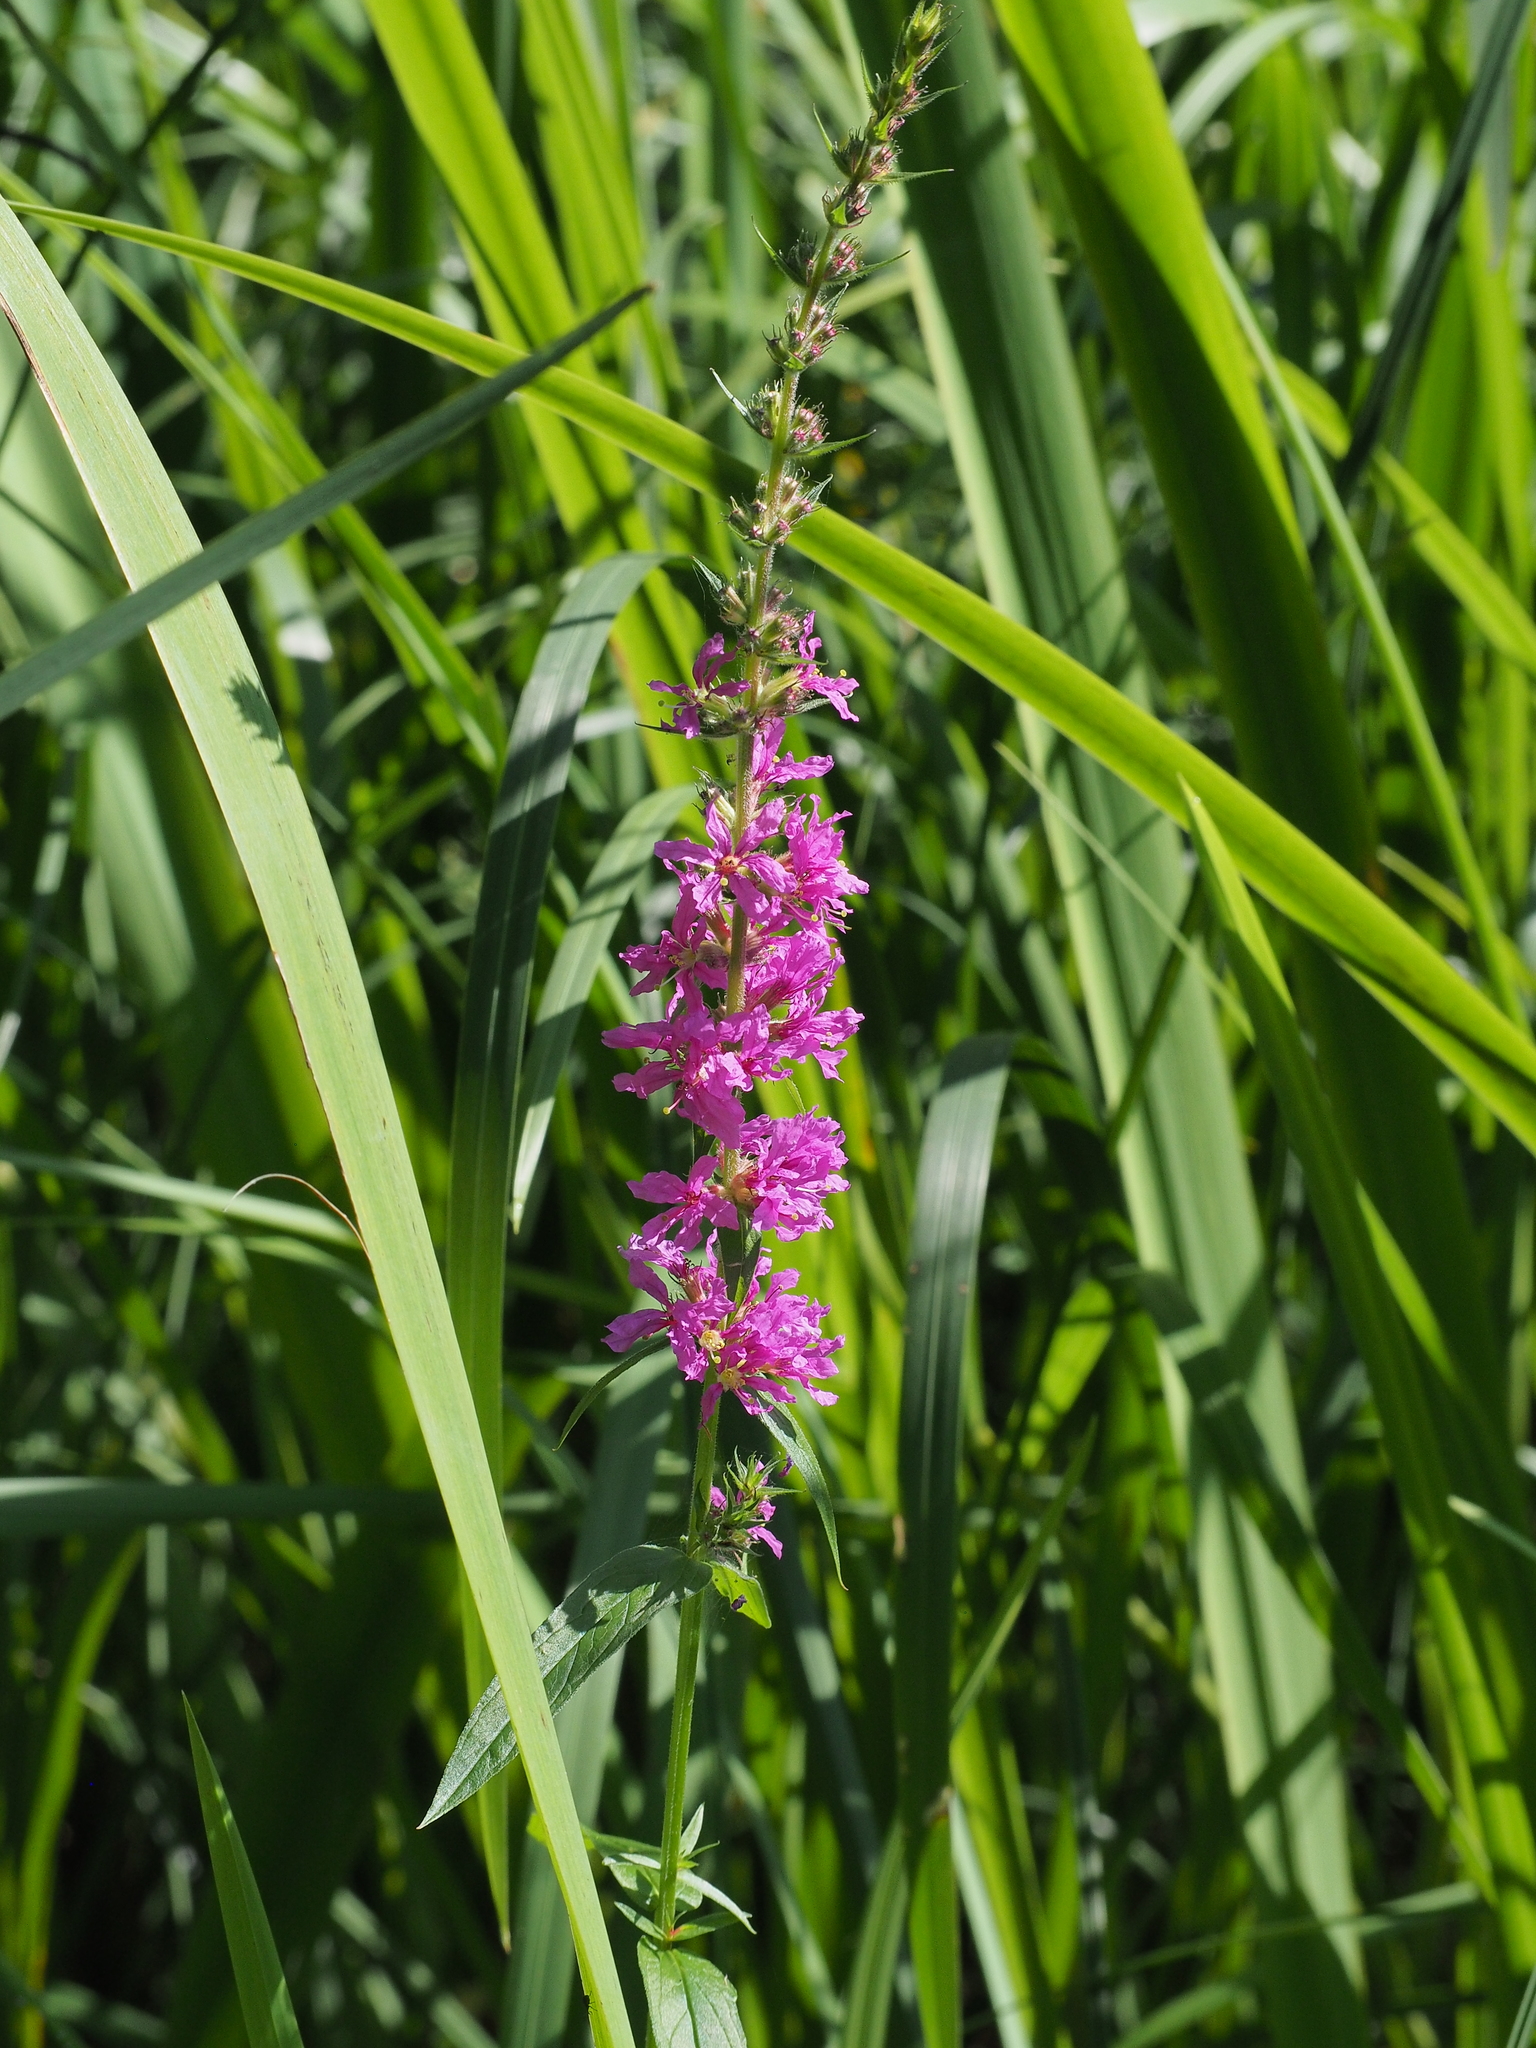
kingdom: Plantae
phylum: Tracheophyta
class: Magnoliopsida
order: Myrtales
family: Lythraceae
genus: Lythrum
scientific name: Lythrum salicaria
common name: Purple loosestrife
